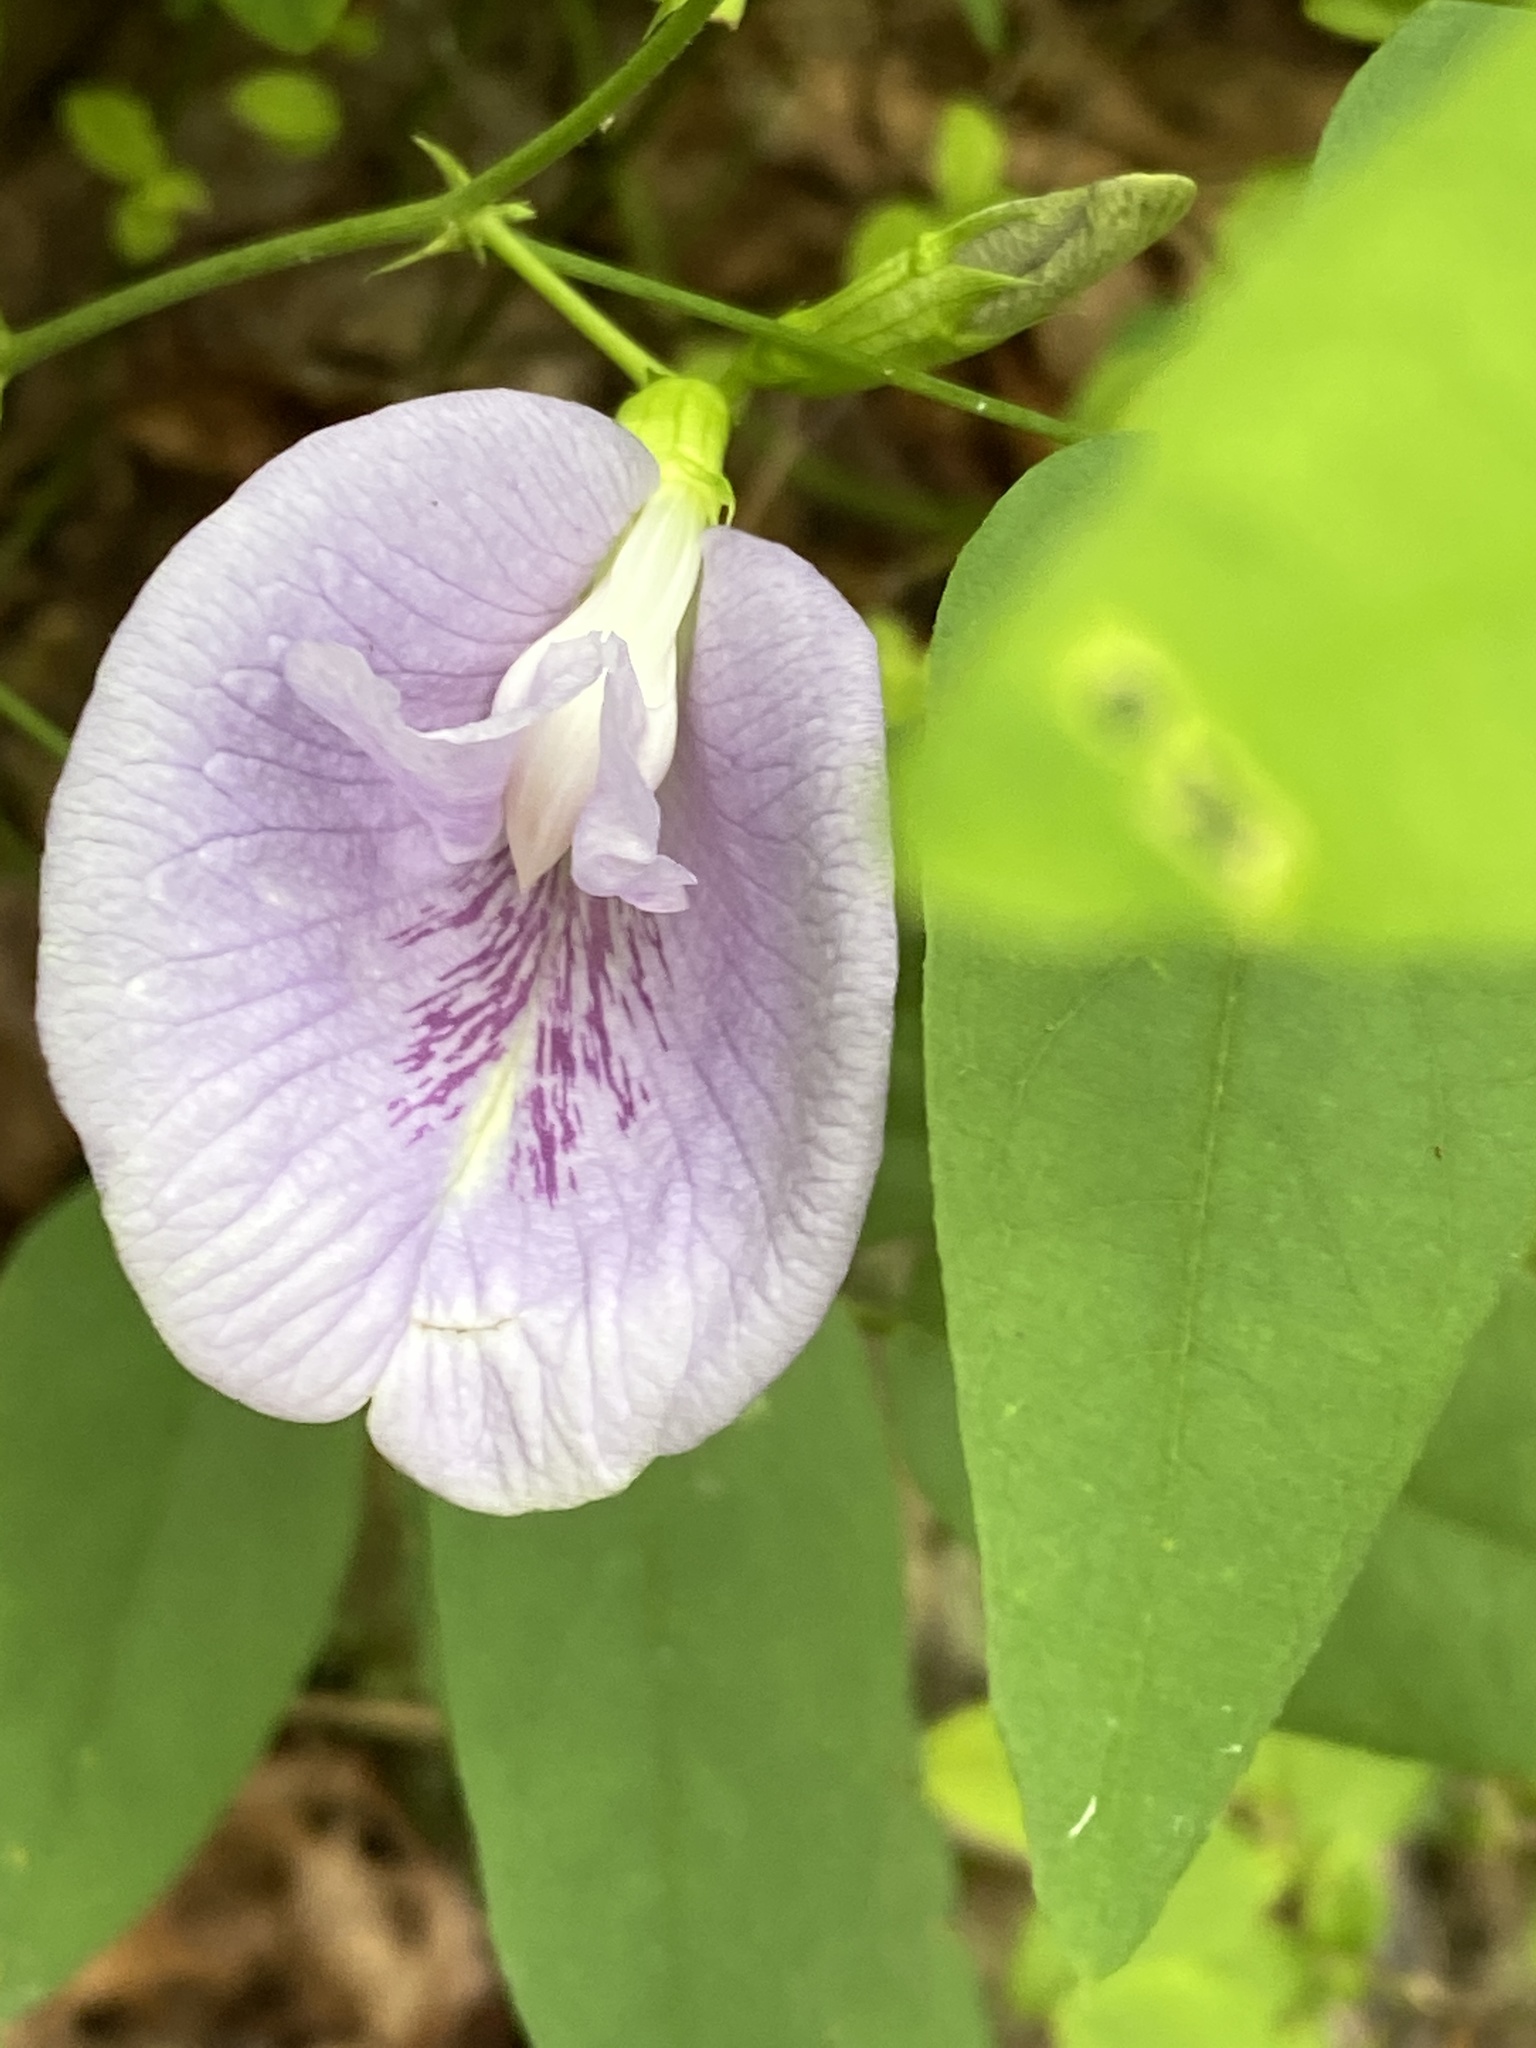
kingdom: Plantae
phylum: Tracheophyta
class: Magnoliopsida
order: Fabales
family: Fabaceae
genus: Clitoria
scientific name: Clitoria mariana
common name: Butterfly-pea
